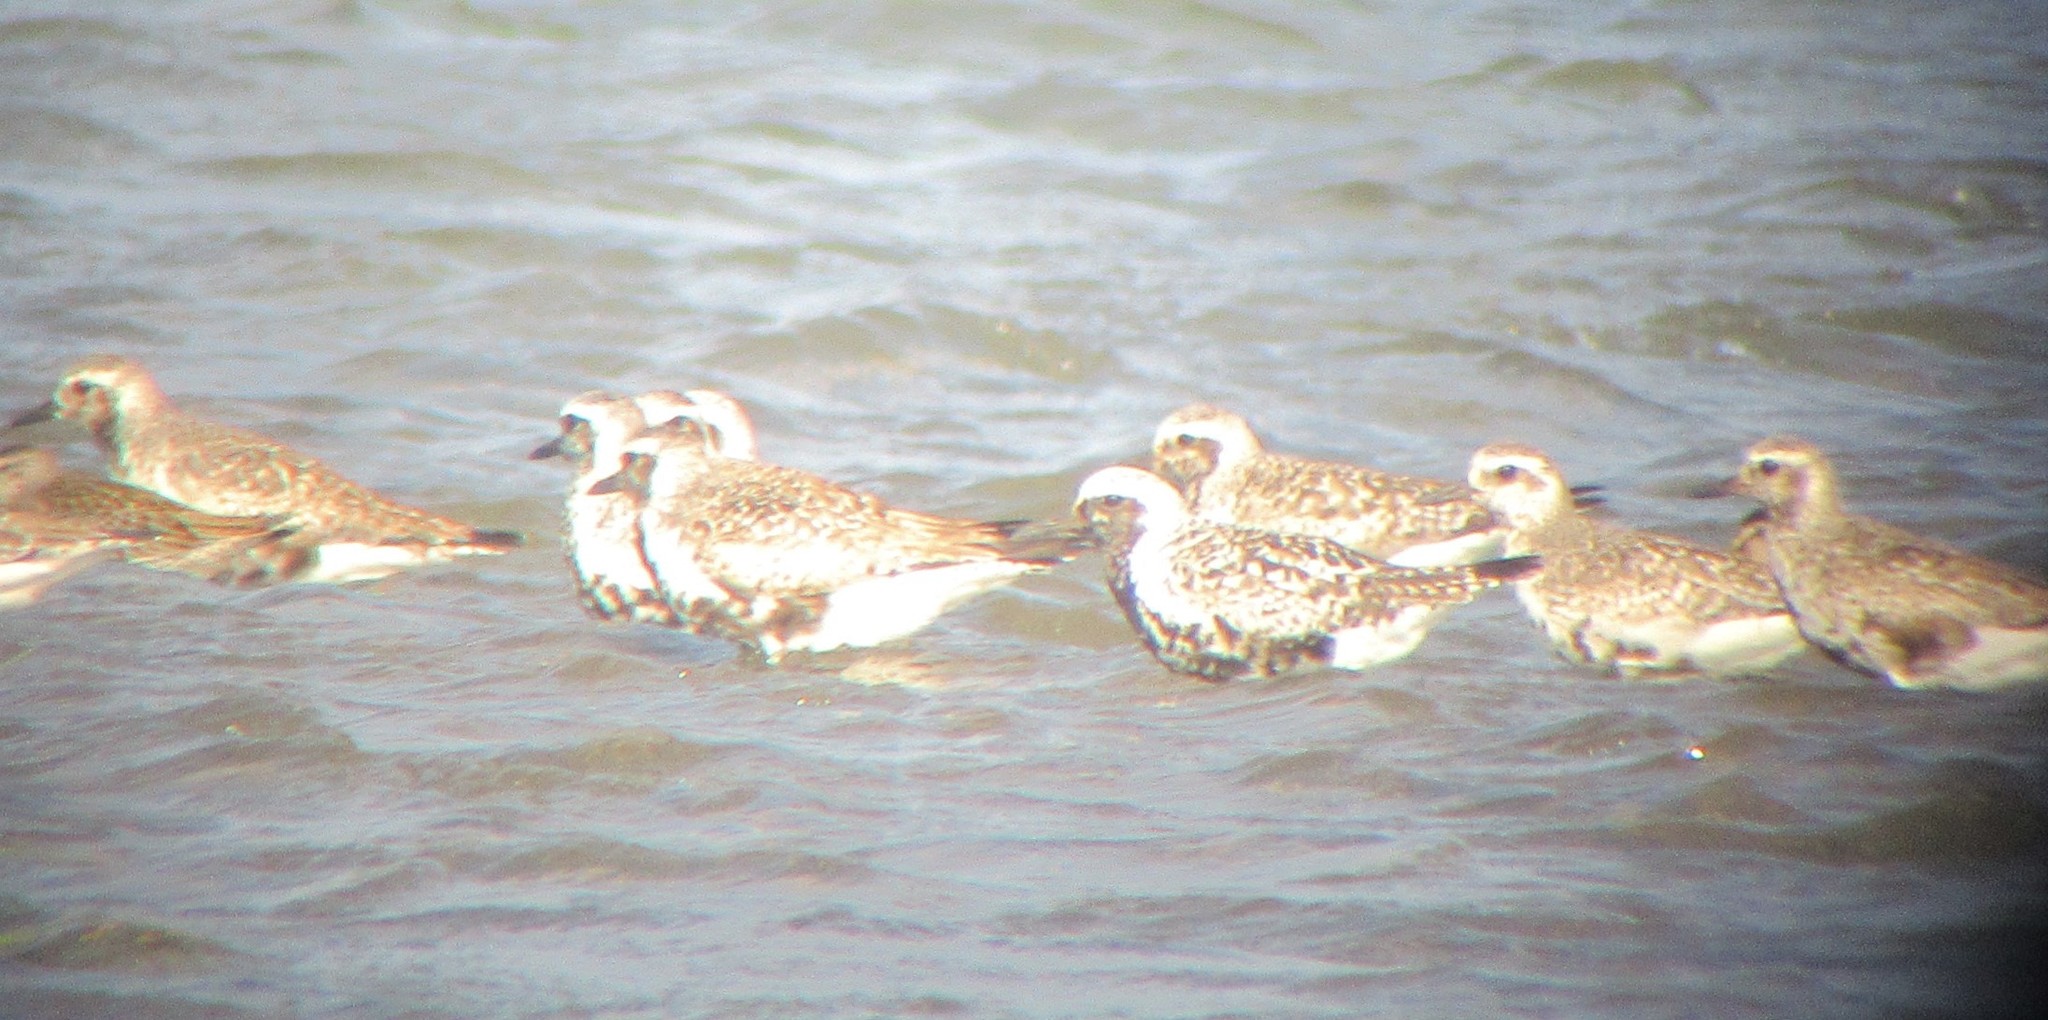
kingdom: Animalia
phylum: Chordata
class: Aves
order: Charadriiformes
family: Charadriidae
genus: Pluvialis
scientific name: Pluvialis squatarola
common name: Grey plover
